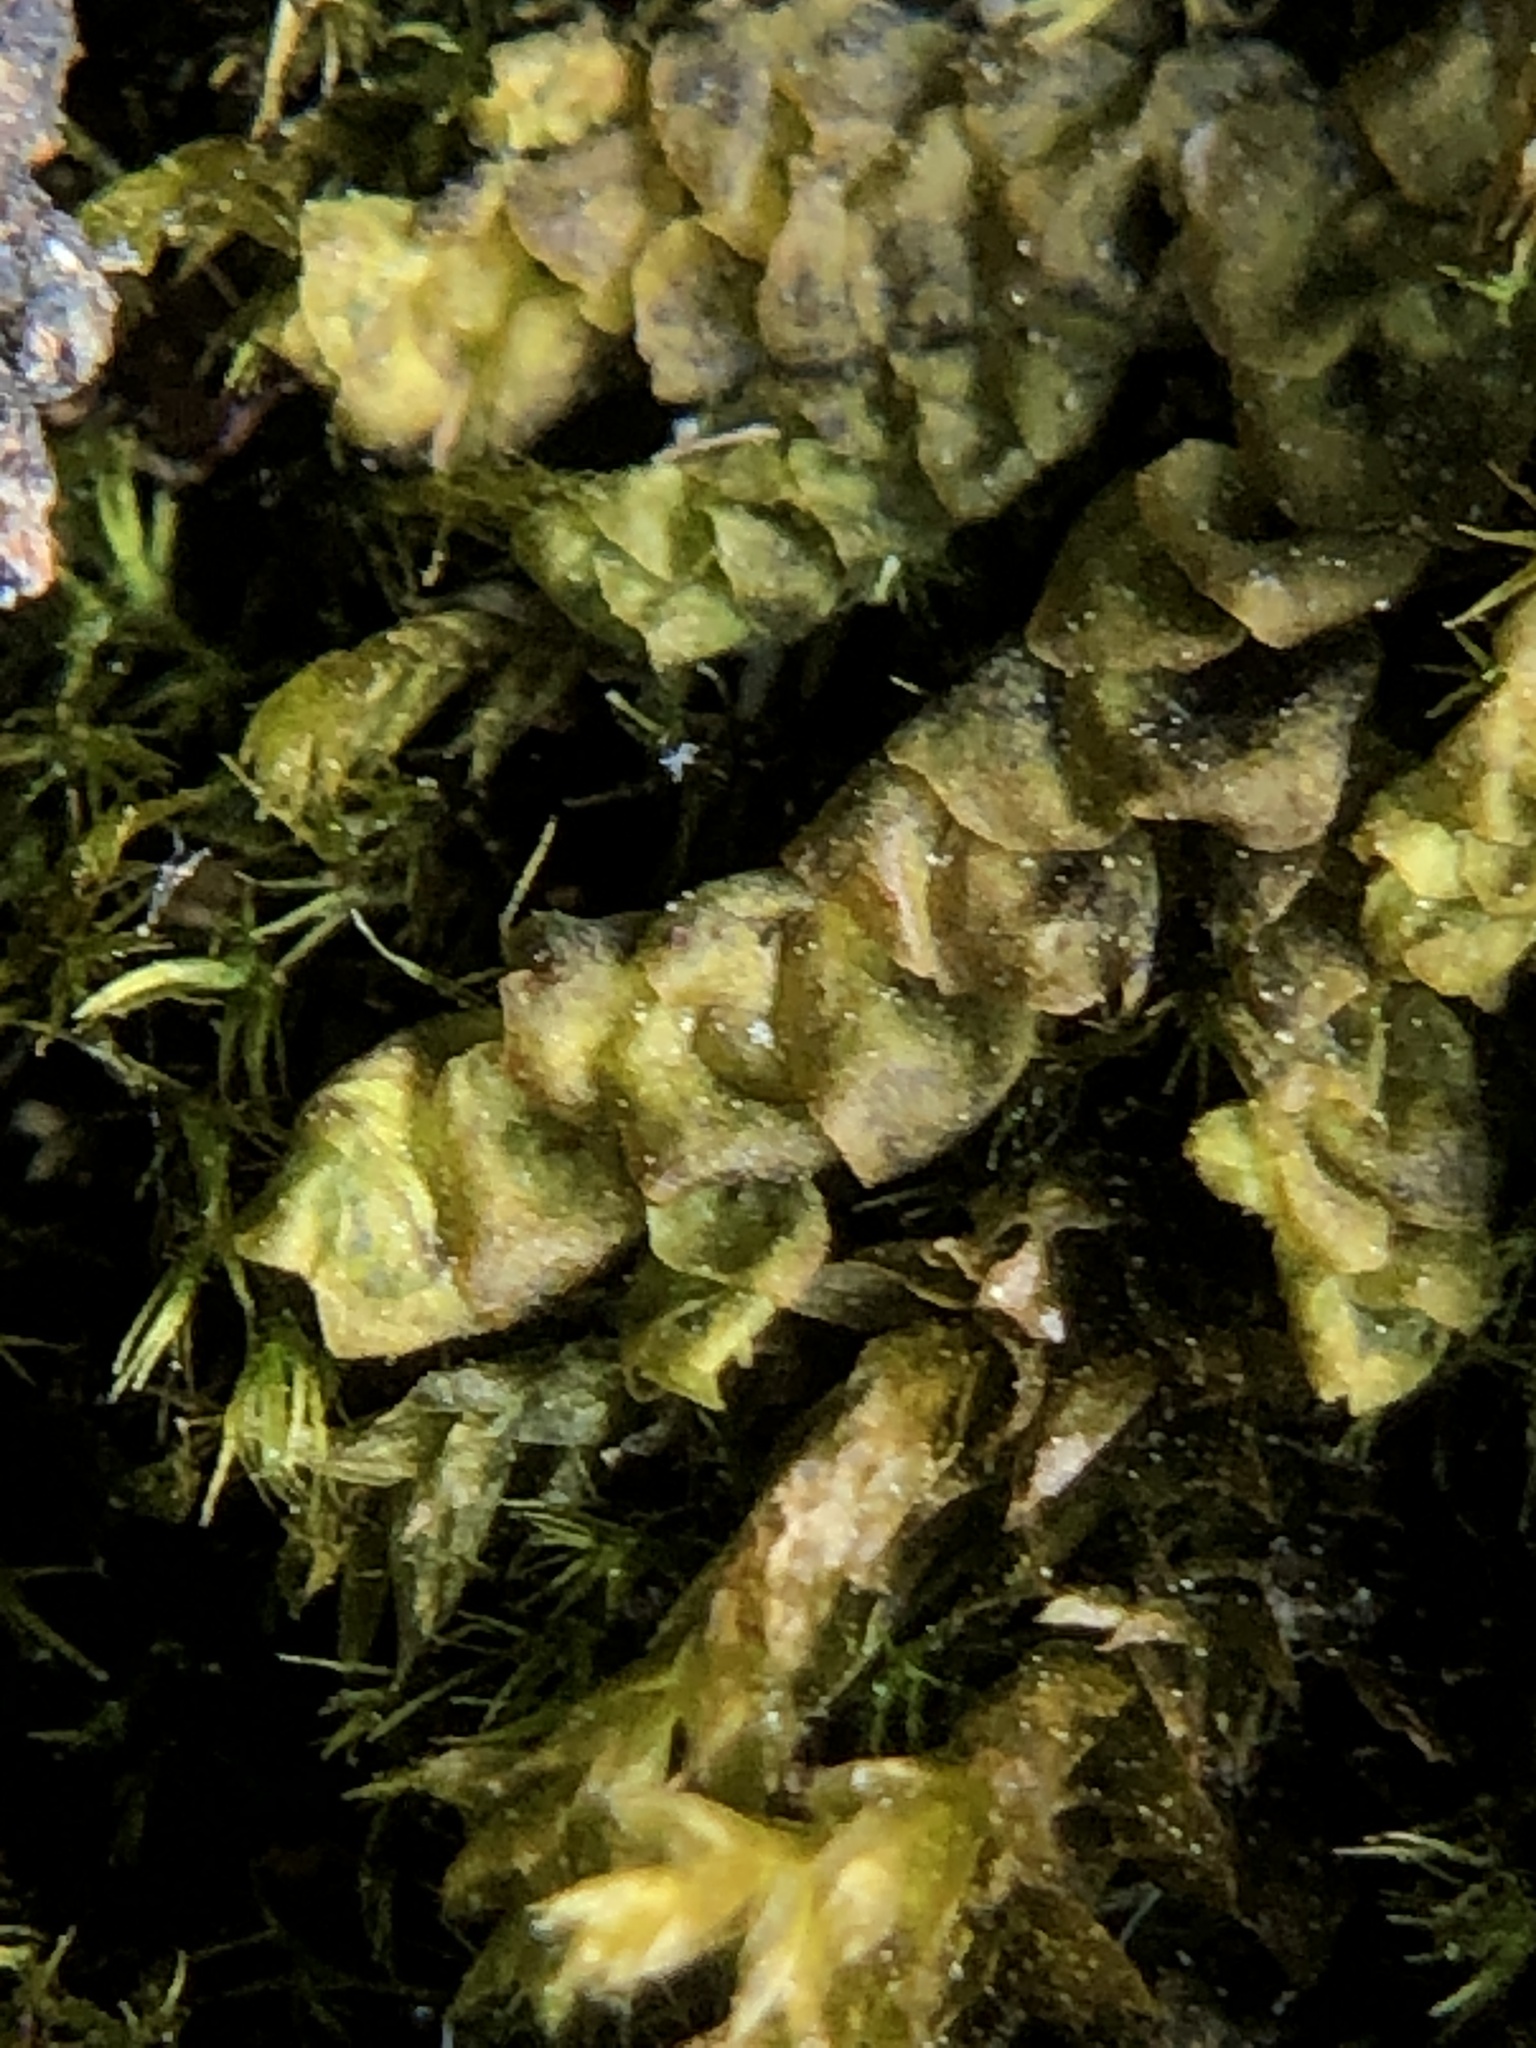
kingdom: Plantae
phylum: Marchantiophyta
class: Jungermanniopsida
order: Porellales
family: Porellaceae
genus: Porella
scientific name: Porella platyphylla
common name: Wall scalewort
